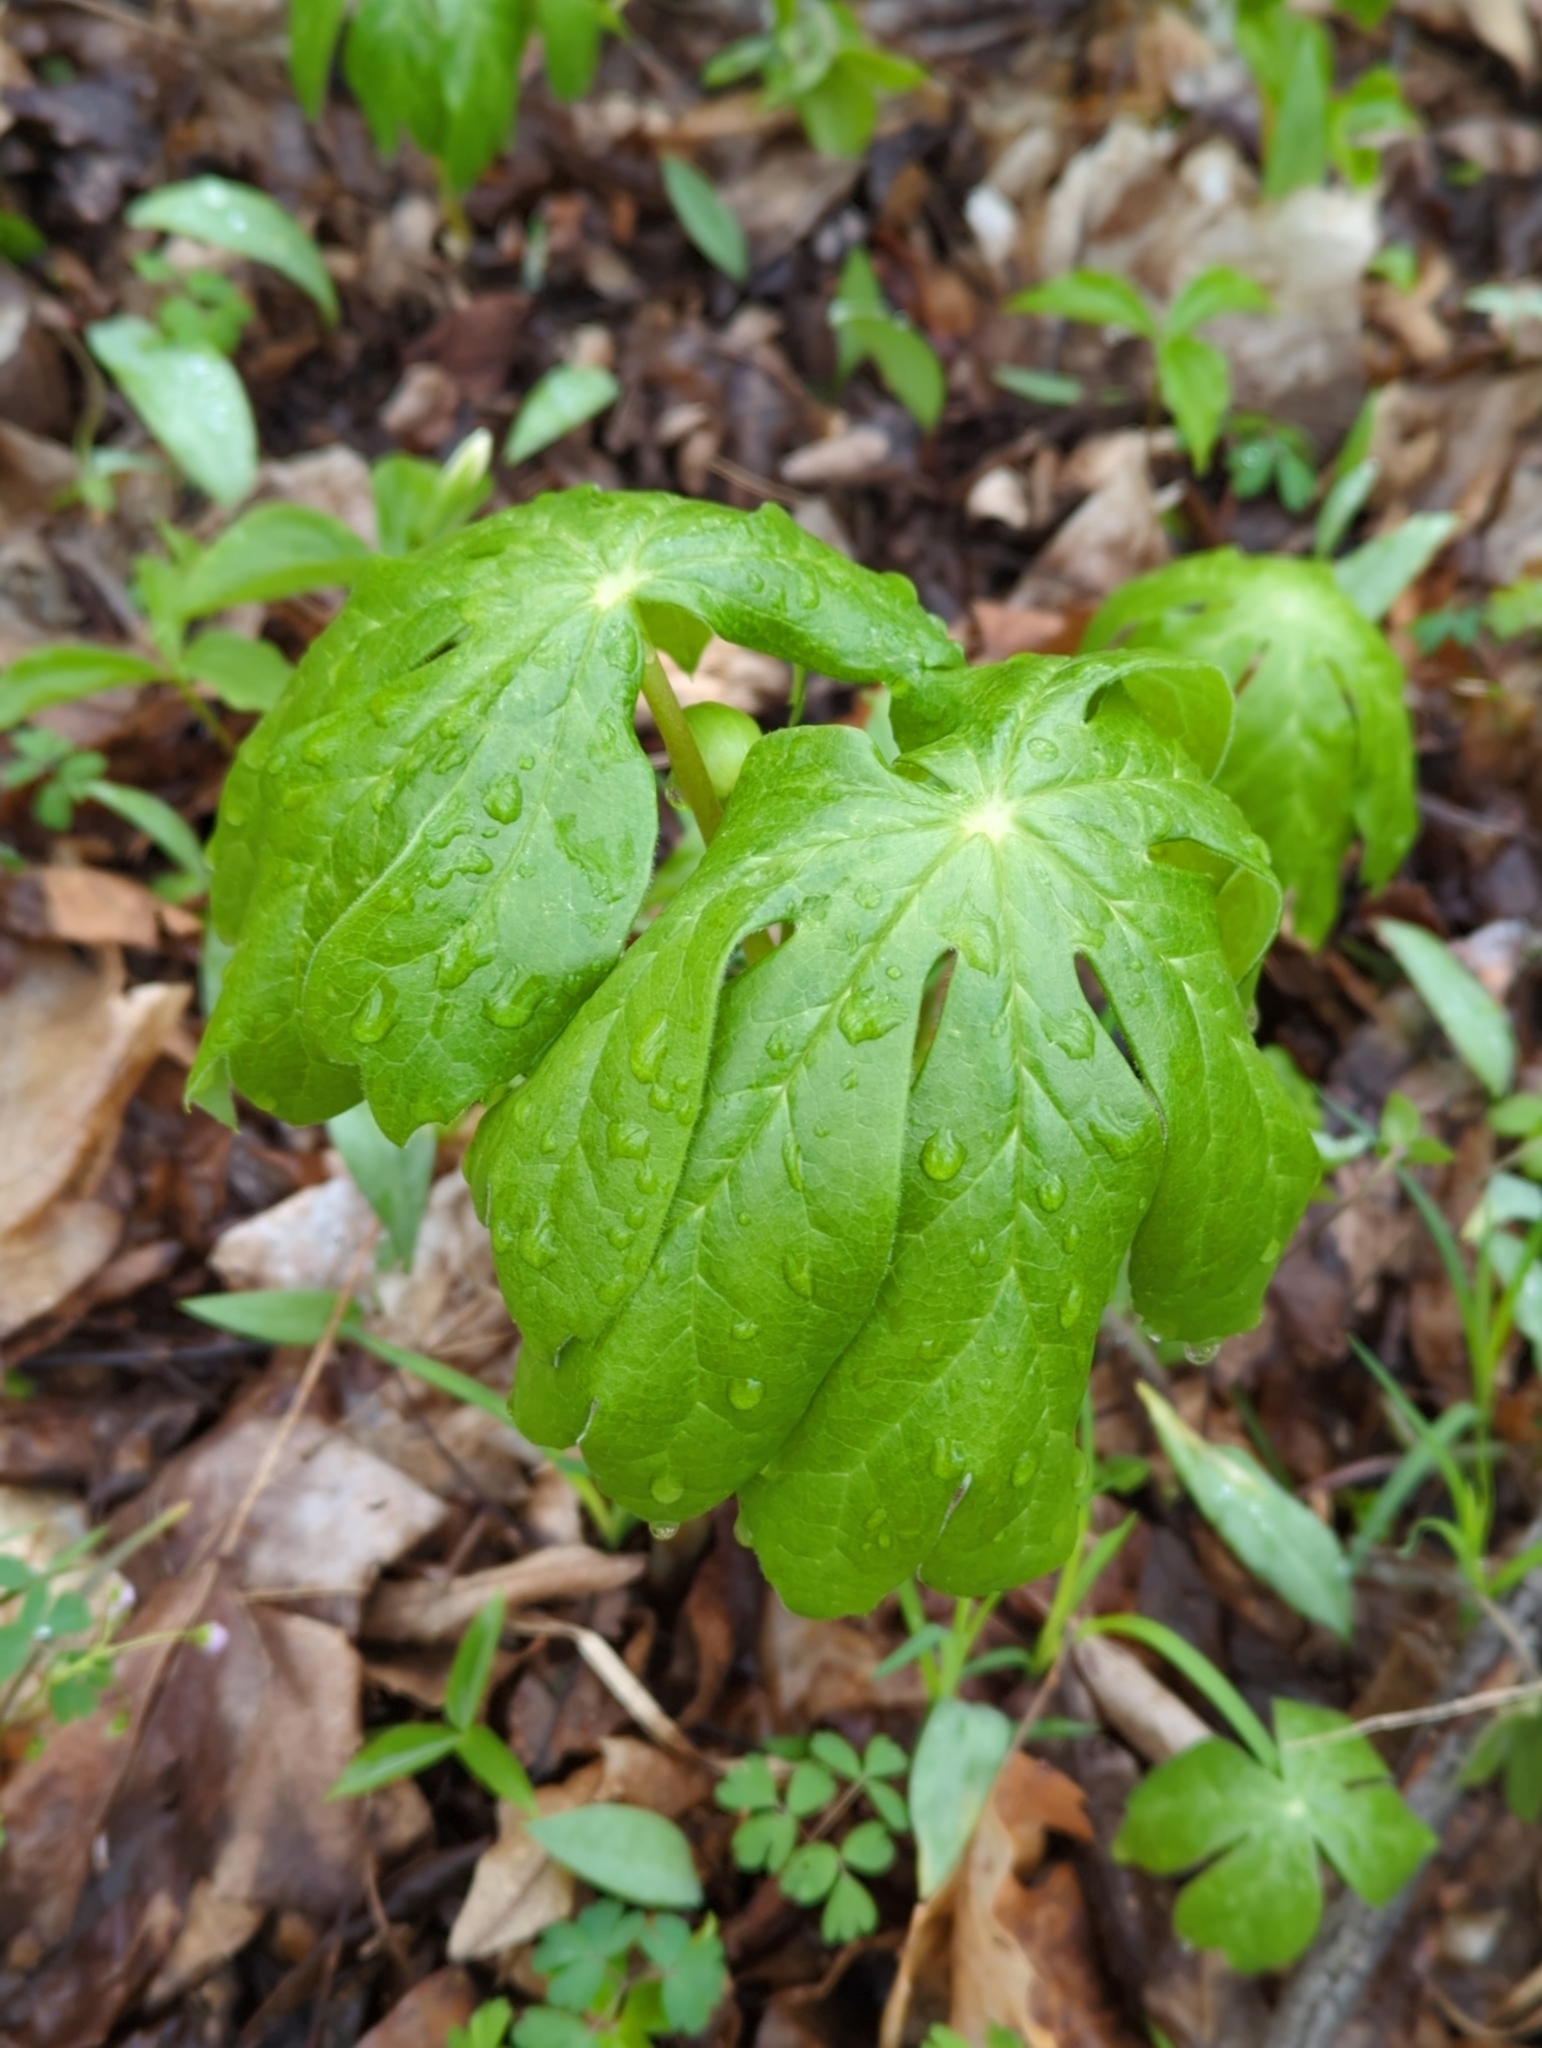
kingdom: Plantae
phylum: Tracheophyta
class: Magnoliopsida
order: Ranunculales
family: Berberidaceae
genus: Podophyllum
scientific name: Podophyllum peltatum
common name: Wild mandrake
